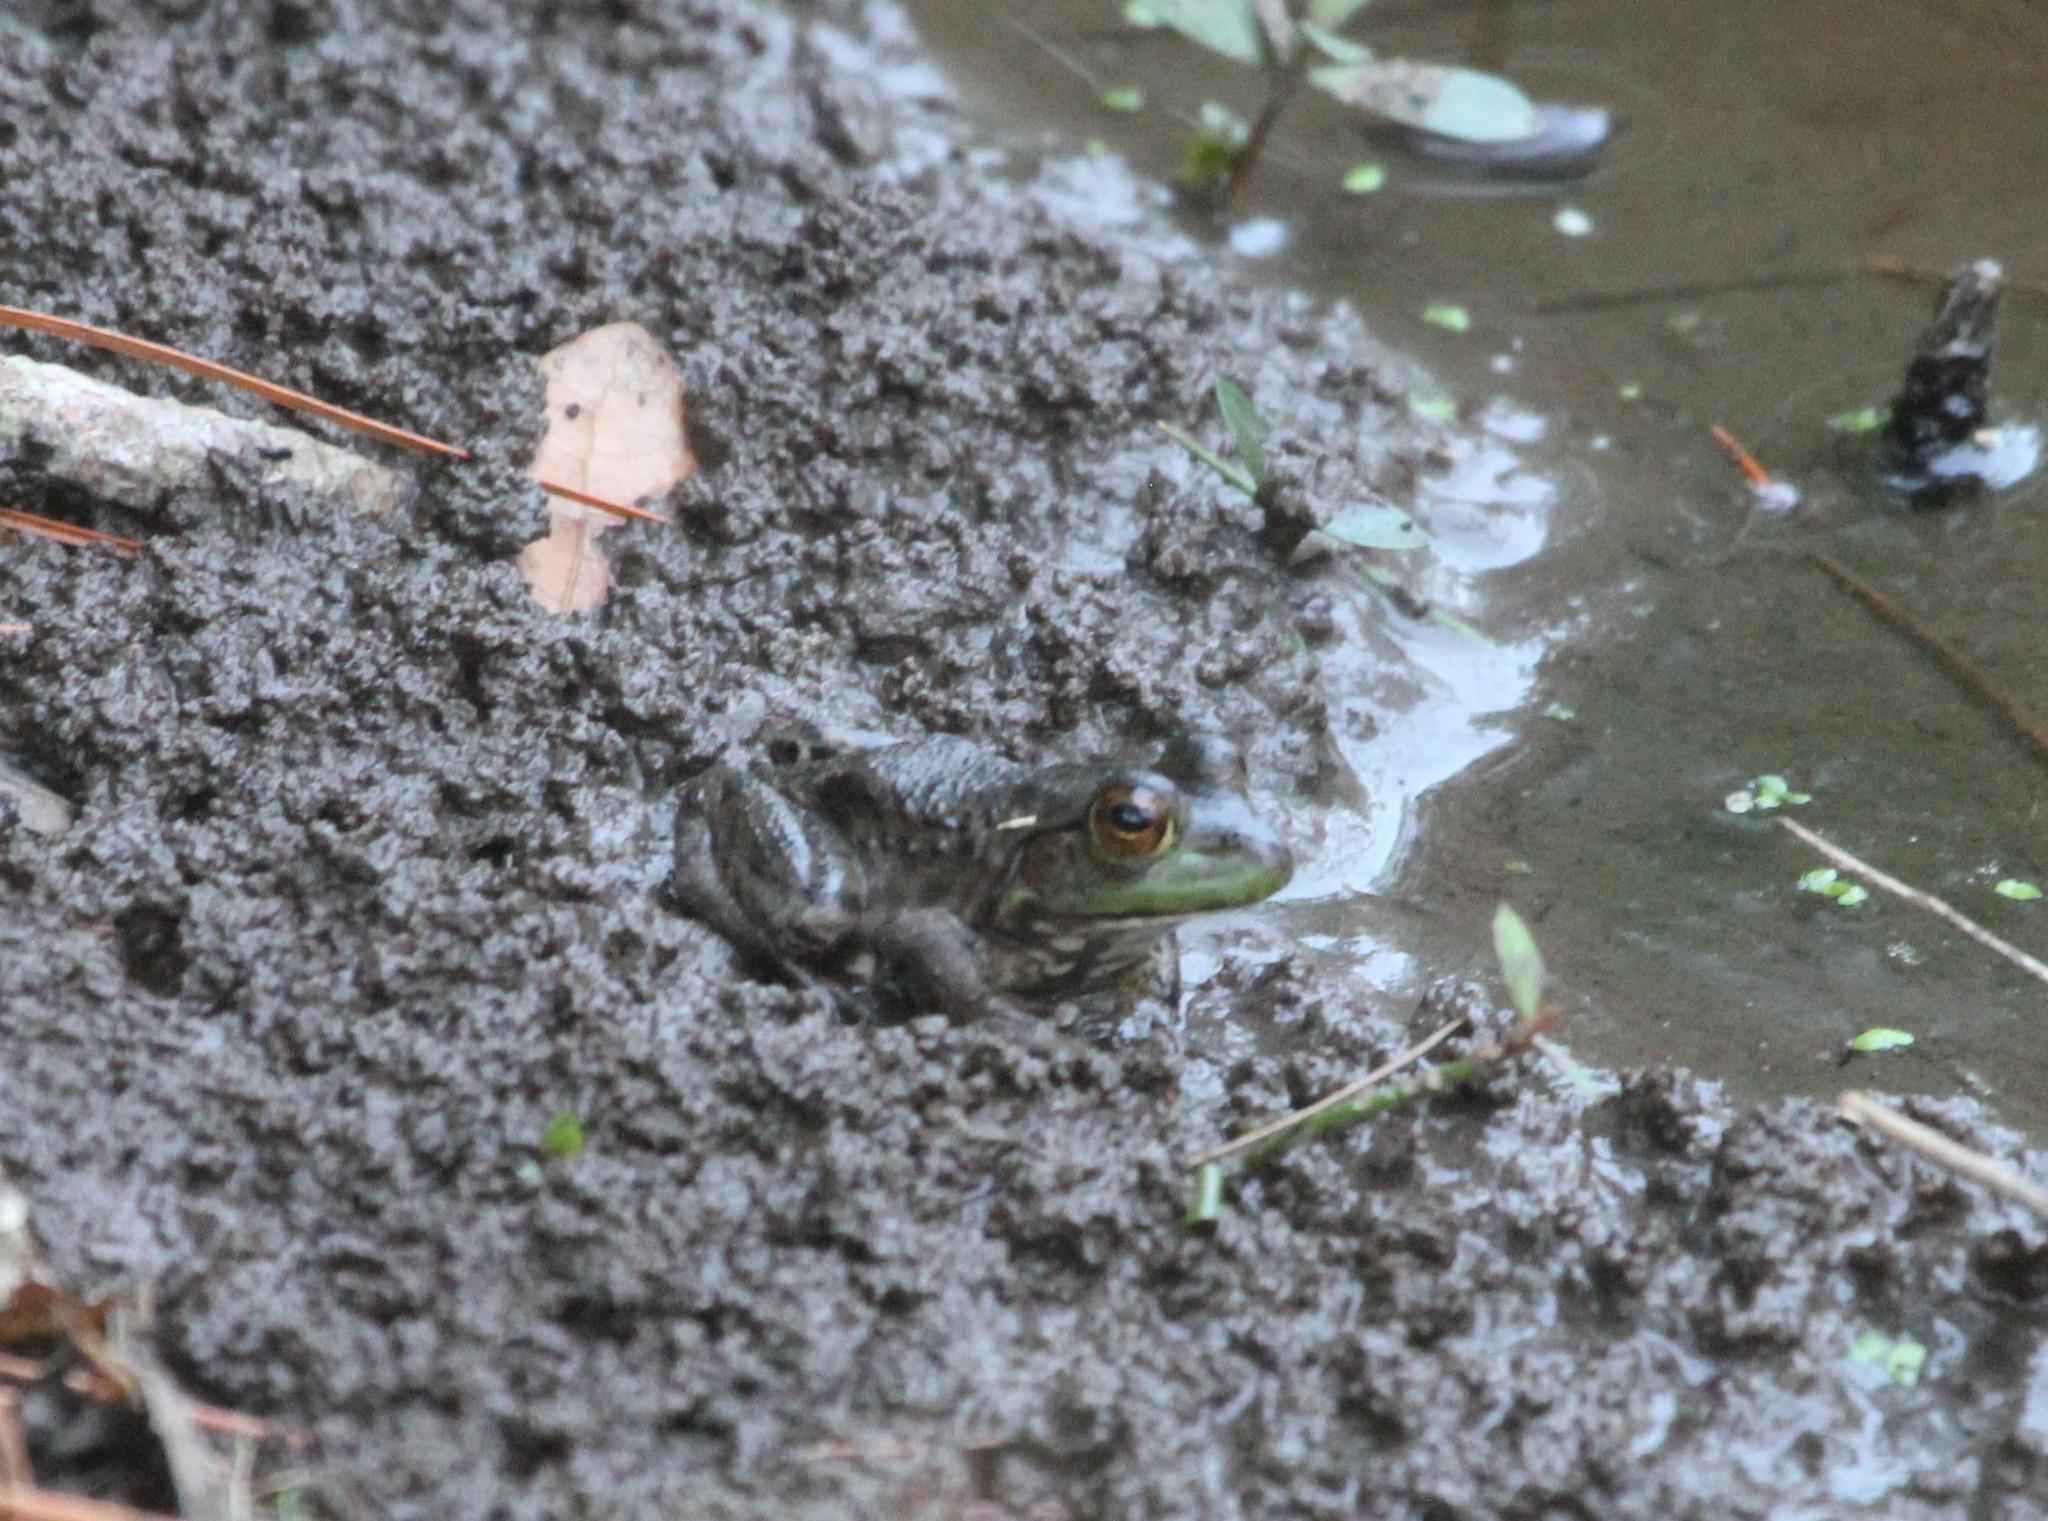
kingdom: Animalia
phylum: Chordata
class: Amphibia
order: Anura
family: Ranidae
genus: Lithobates
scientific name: Lithobates catesbeianus
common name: American bullfrog
